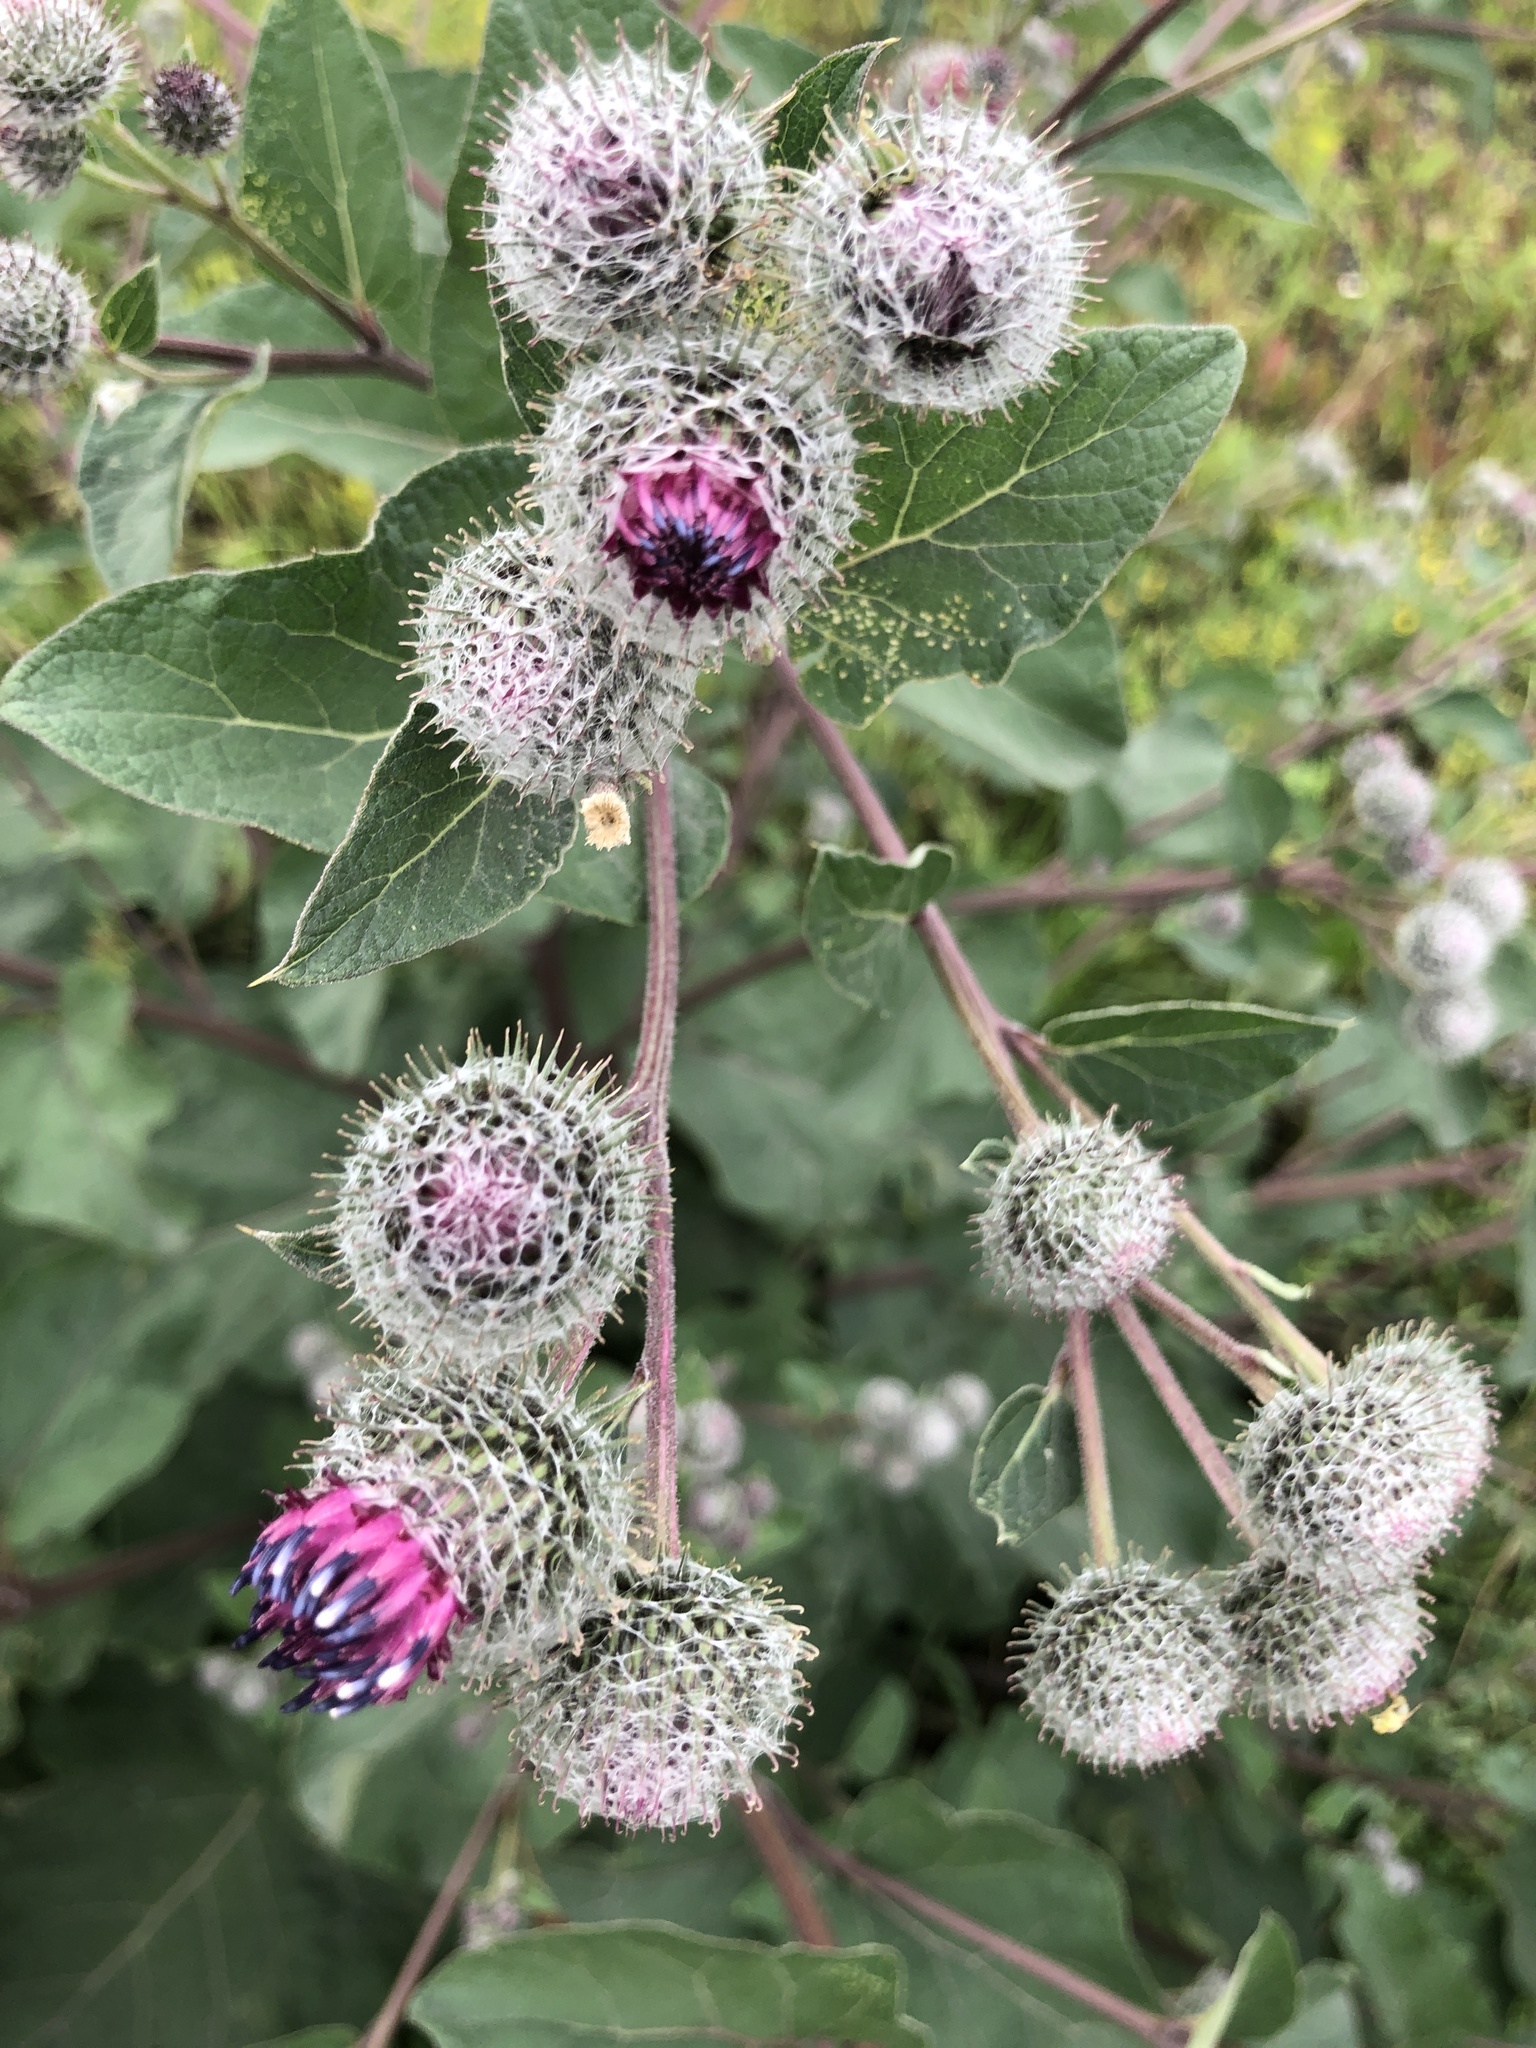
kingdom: Plantae
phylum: Tracheophyta
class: Magnoliopsida
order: Asterales
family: Asteraceae
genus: Arctium
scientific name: Arctium tomentosum
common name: Woolly burdock
